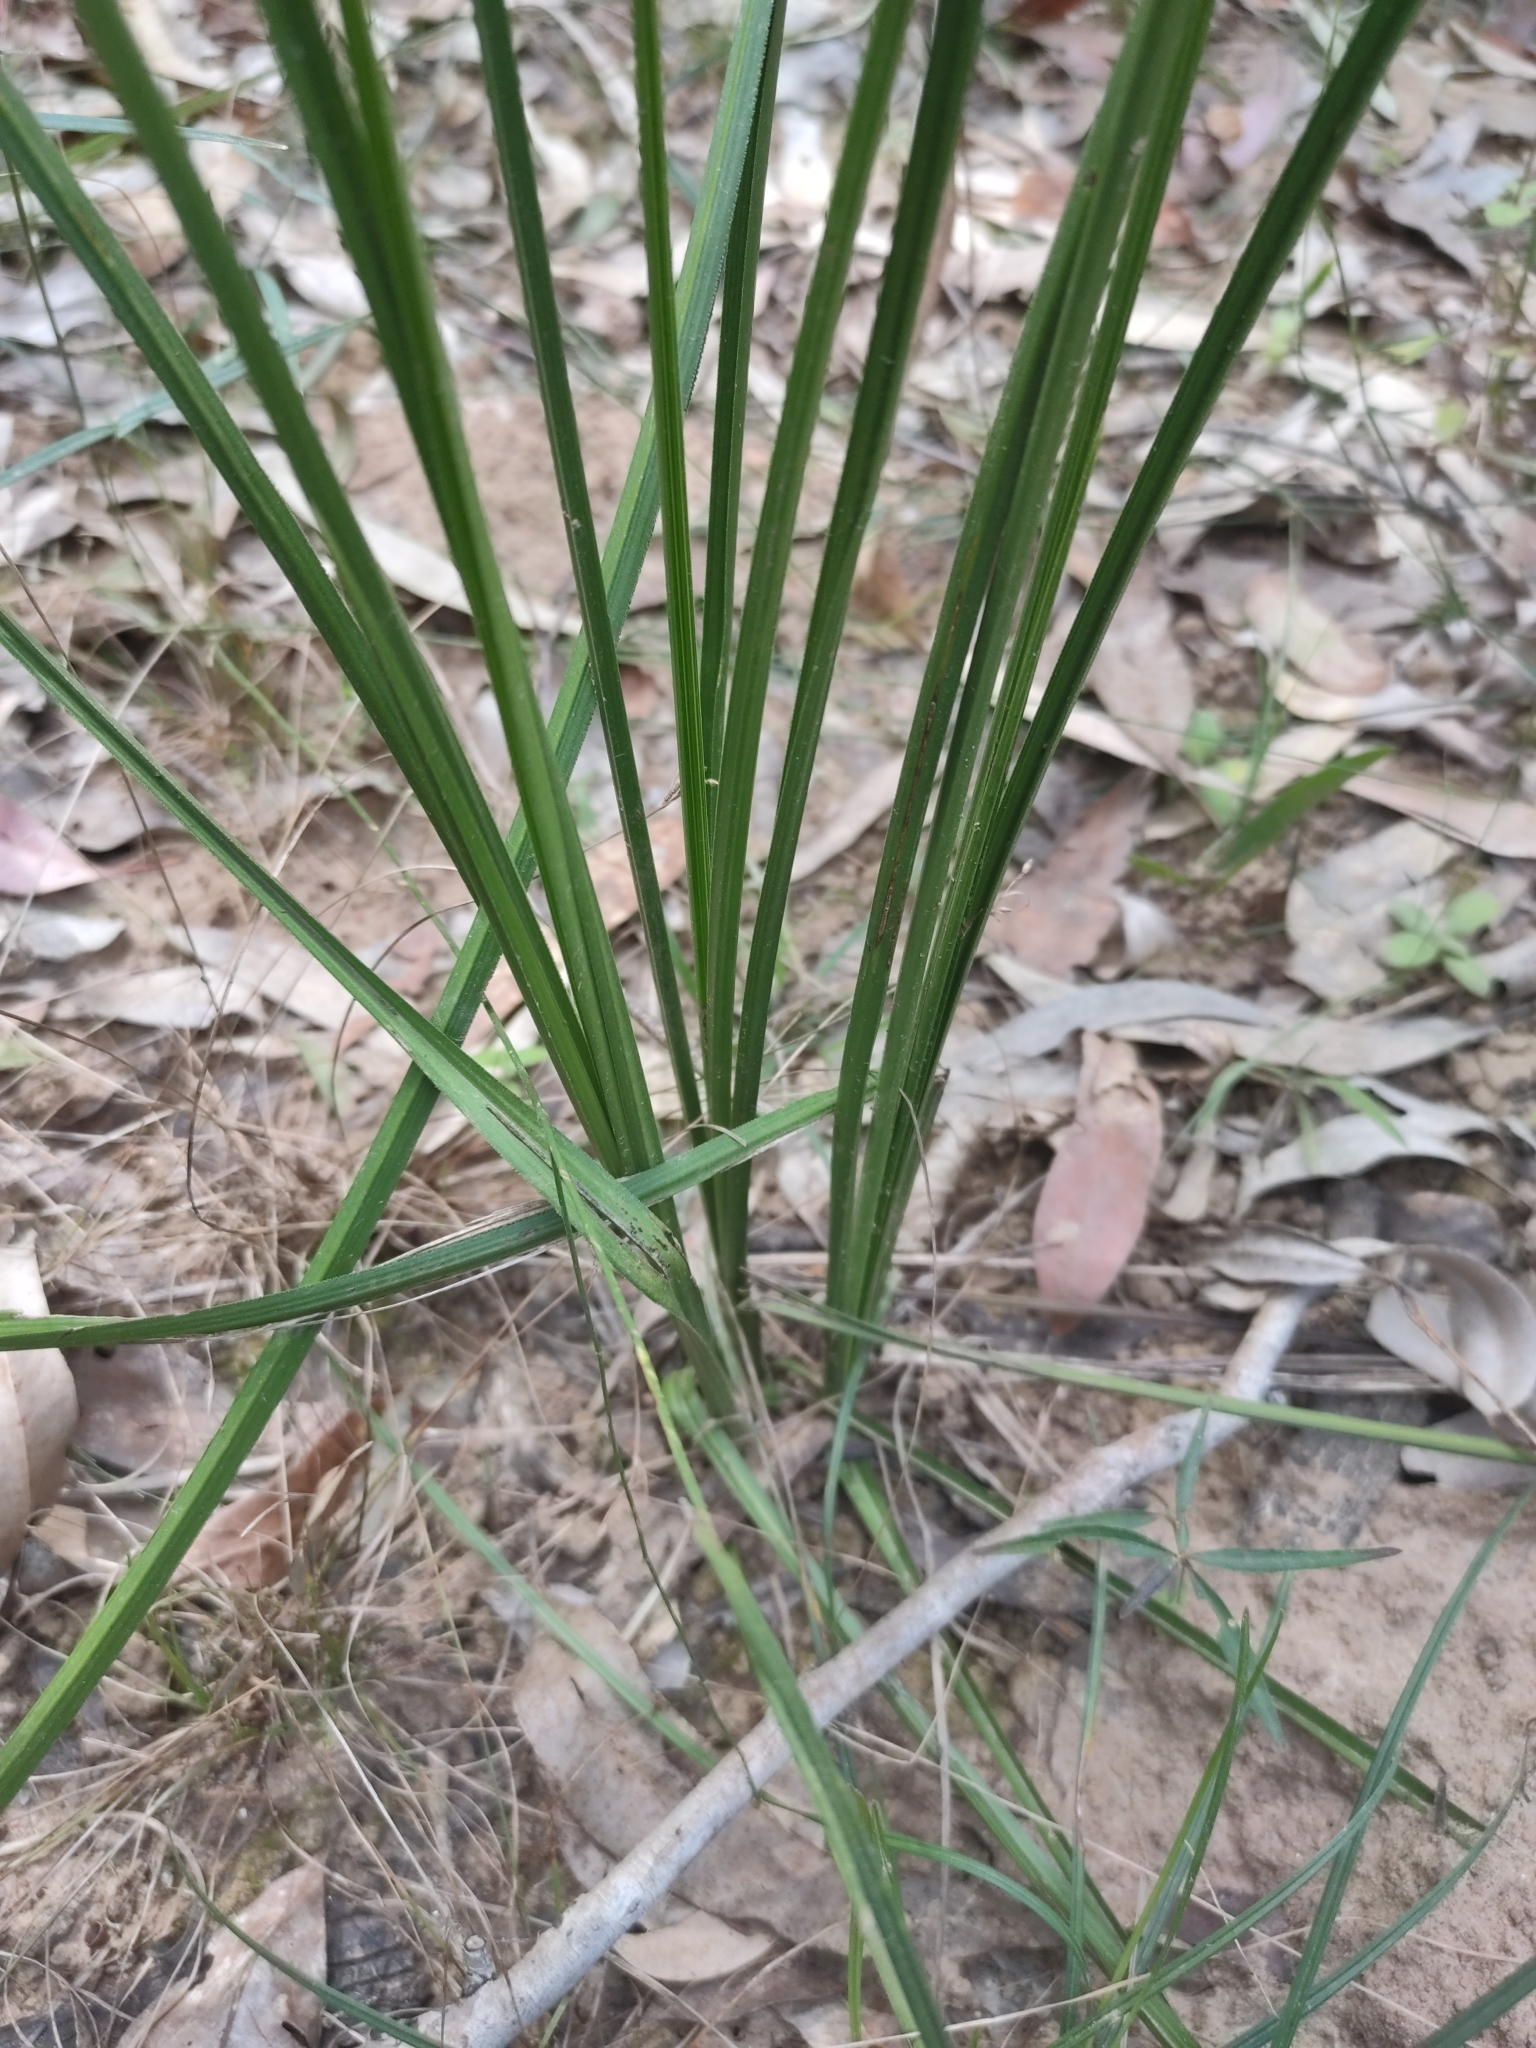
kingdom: Plantae
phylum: Tracheophyta
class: Liliopsida
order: Alismatales
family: Araceae
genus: Gymnostachys
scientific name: Gymnostachys anceps
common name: Settler's-flax
